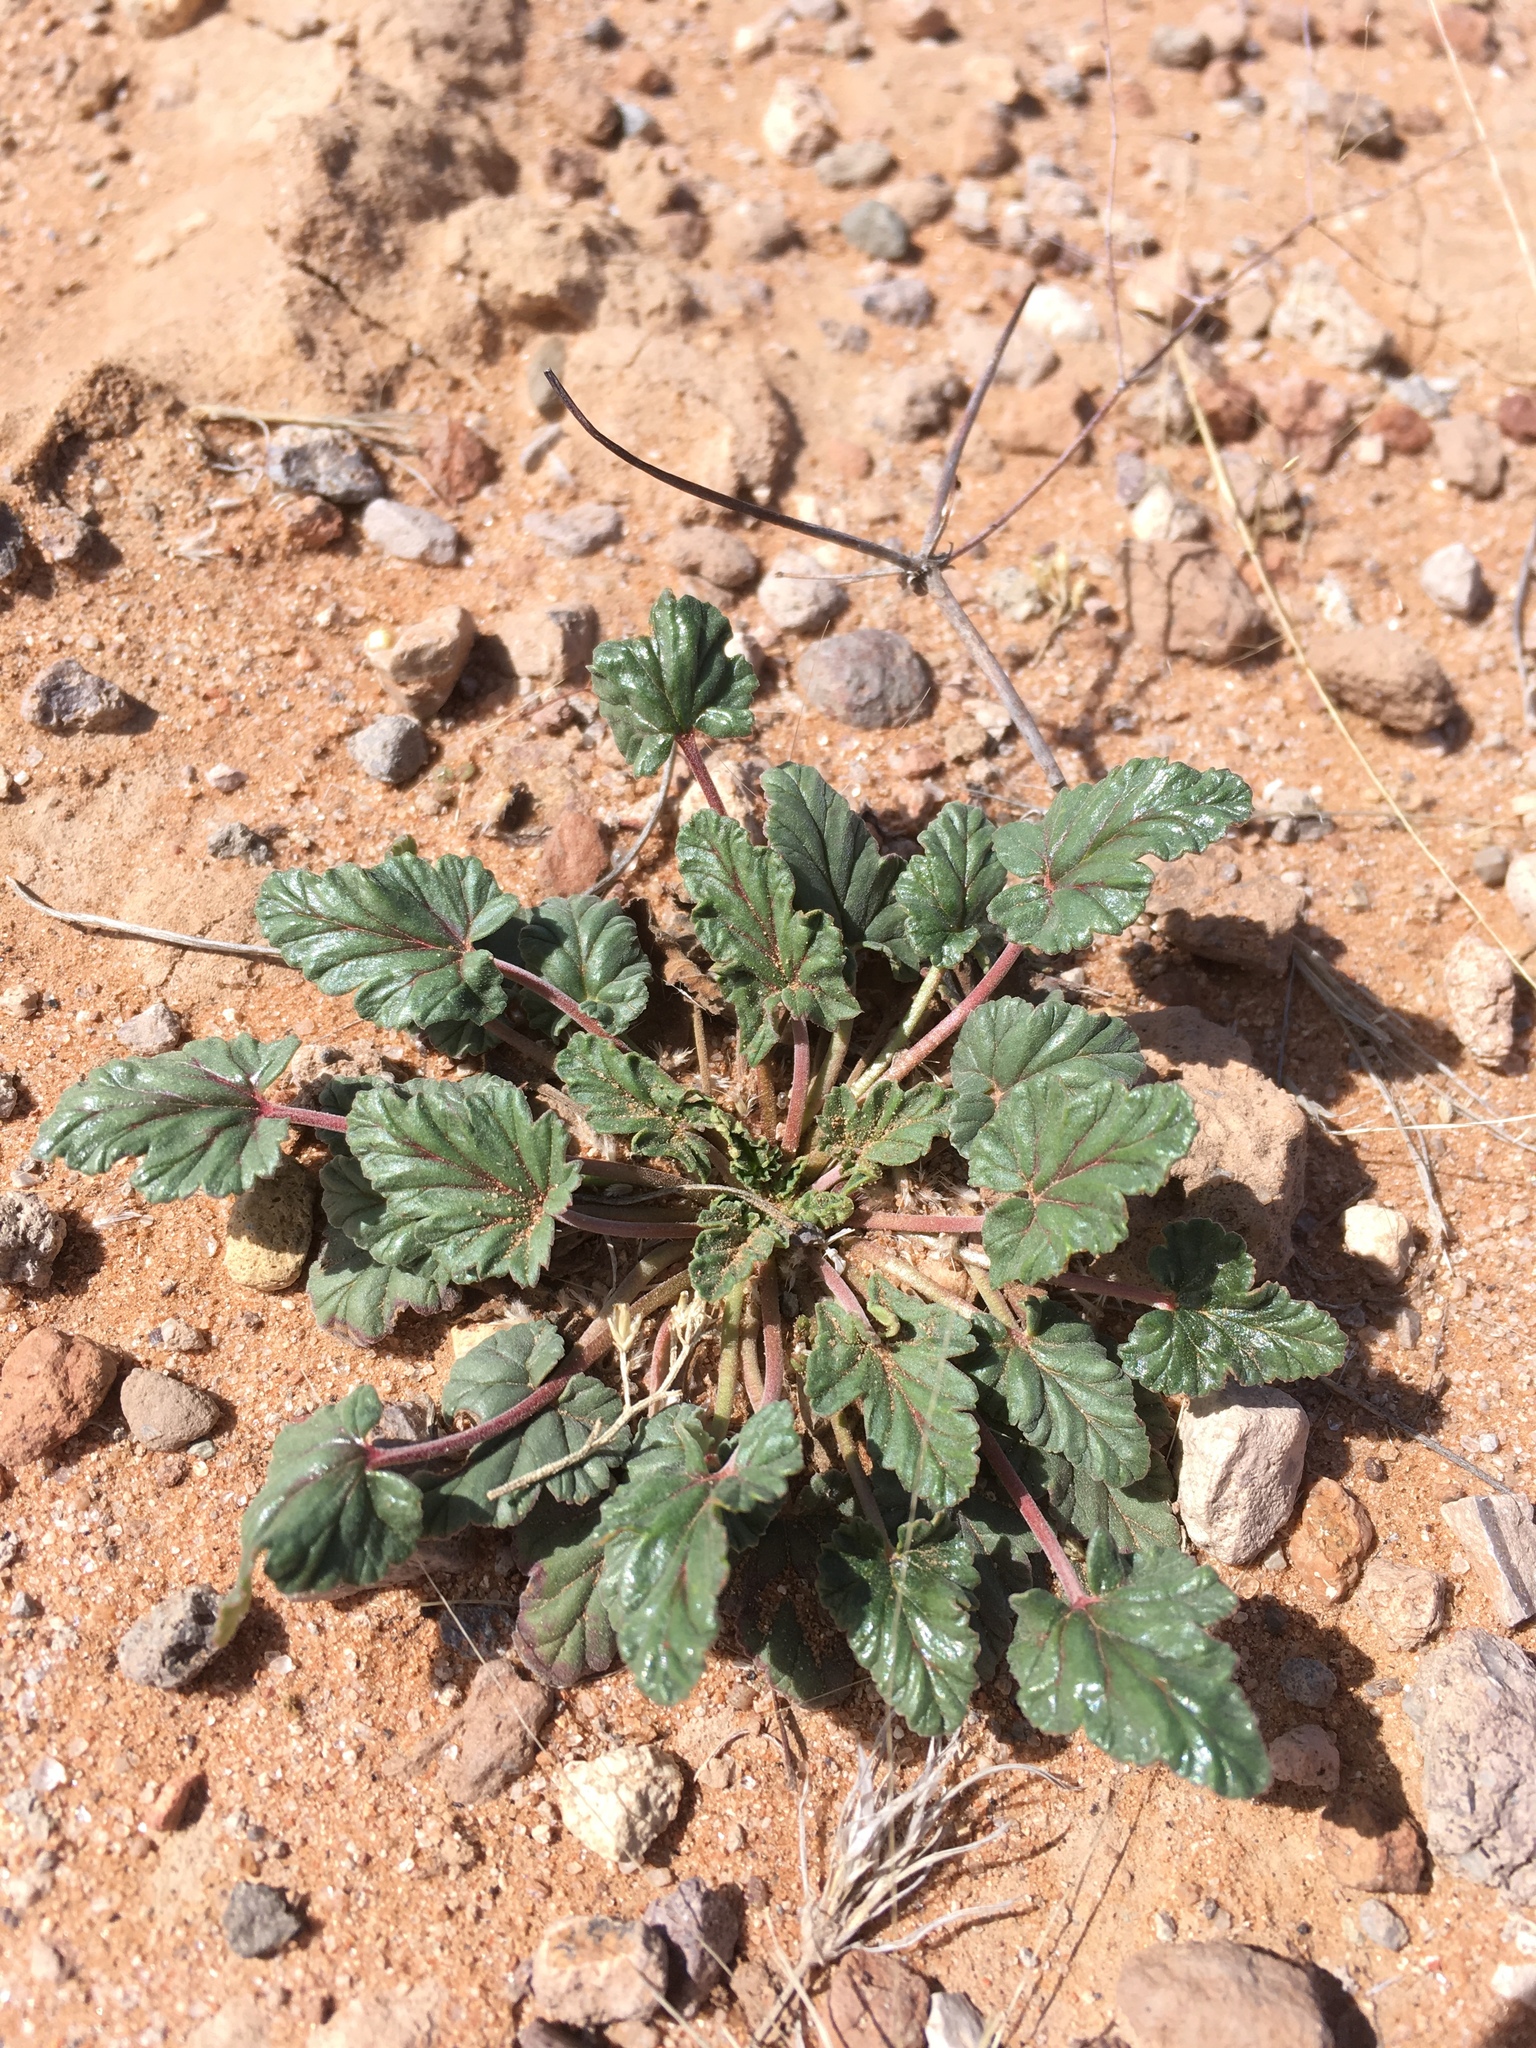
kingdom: Plantae
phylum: Tracheophyta
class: Magnoliopsida
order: Geraniales
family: Geraniaceae
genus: Erodium
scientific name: Erodium texanum
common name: Texas stork's-bill
